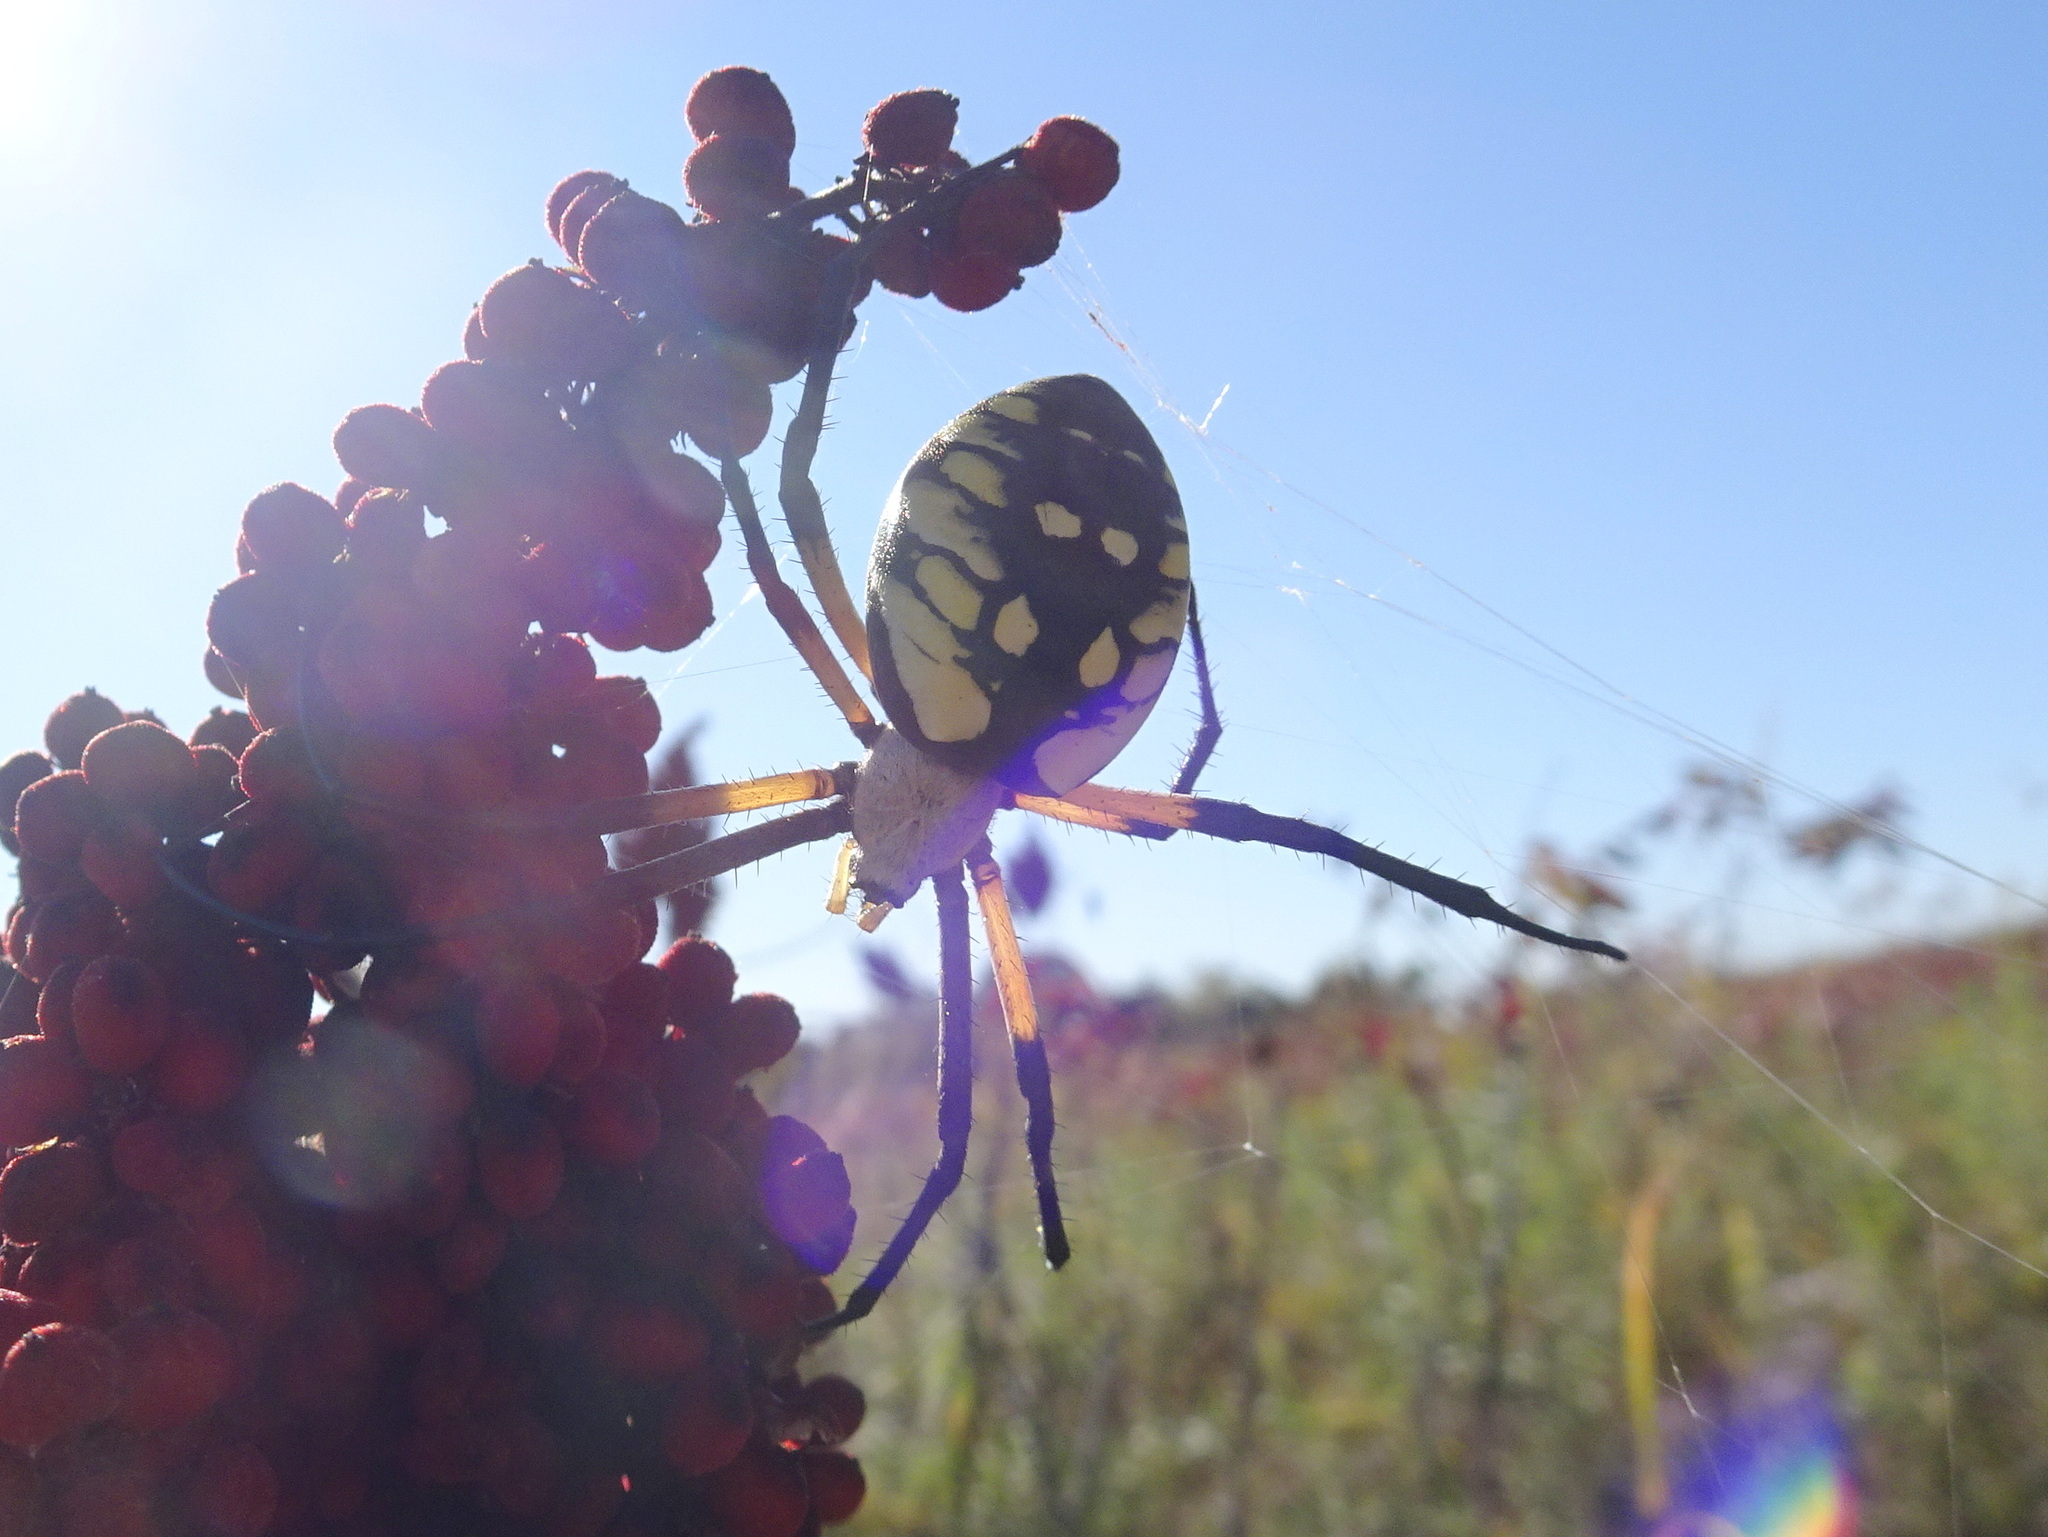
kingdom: Animalia
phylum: Arthropoda
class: Arachnida
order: Araneae
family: Araneidae
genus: Argiope
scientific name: Argiope aurantia
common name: Orb weavers
